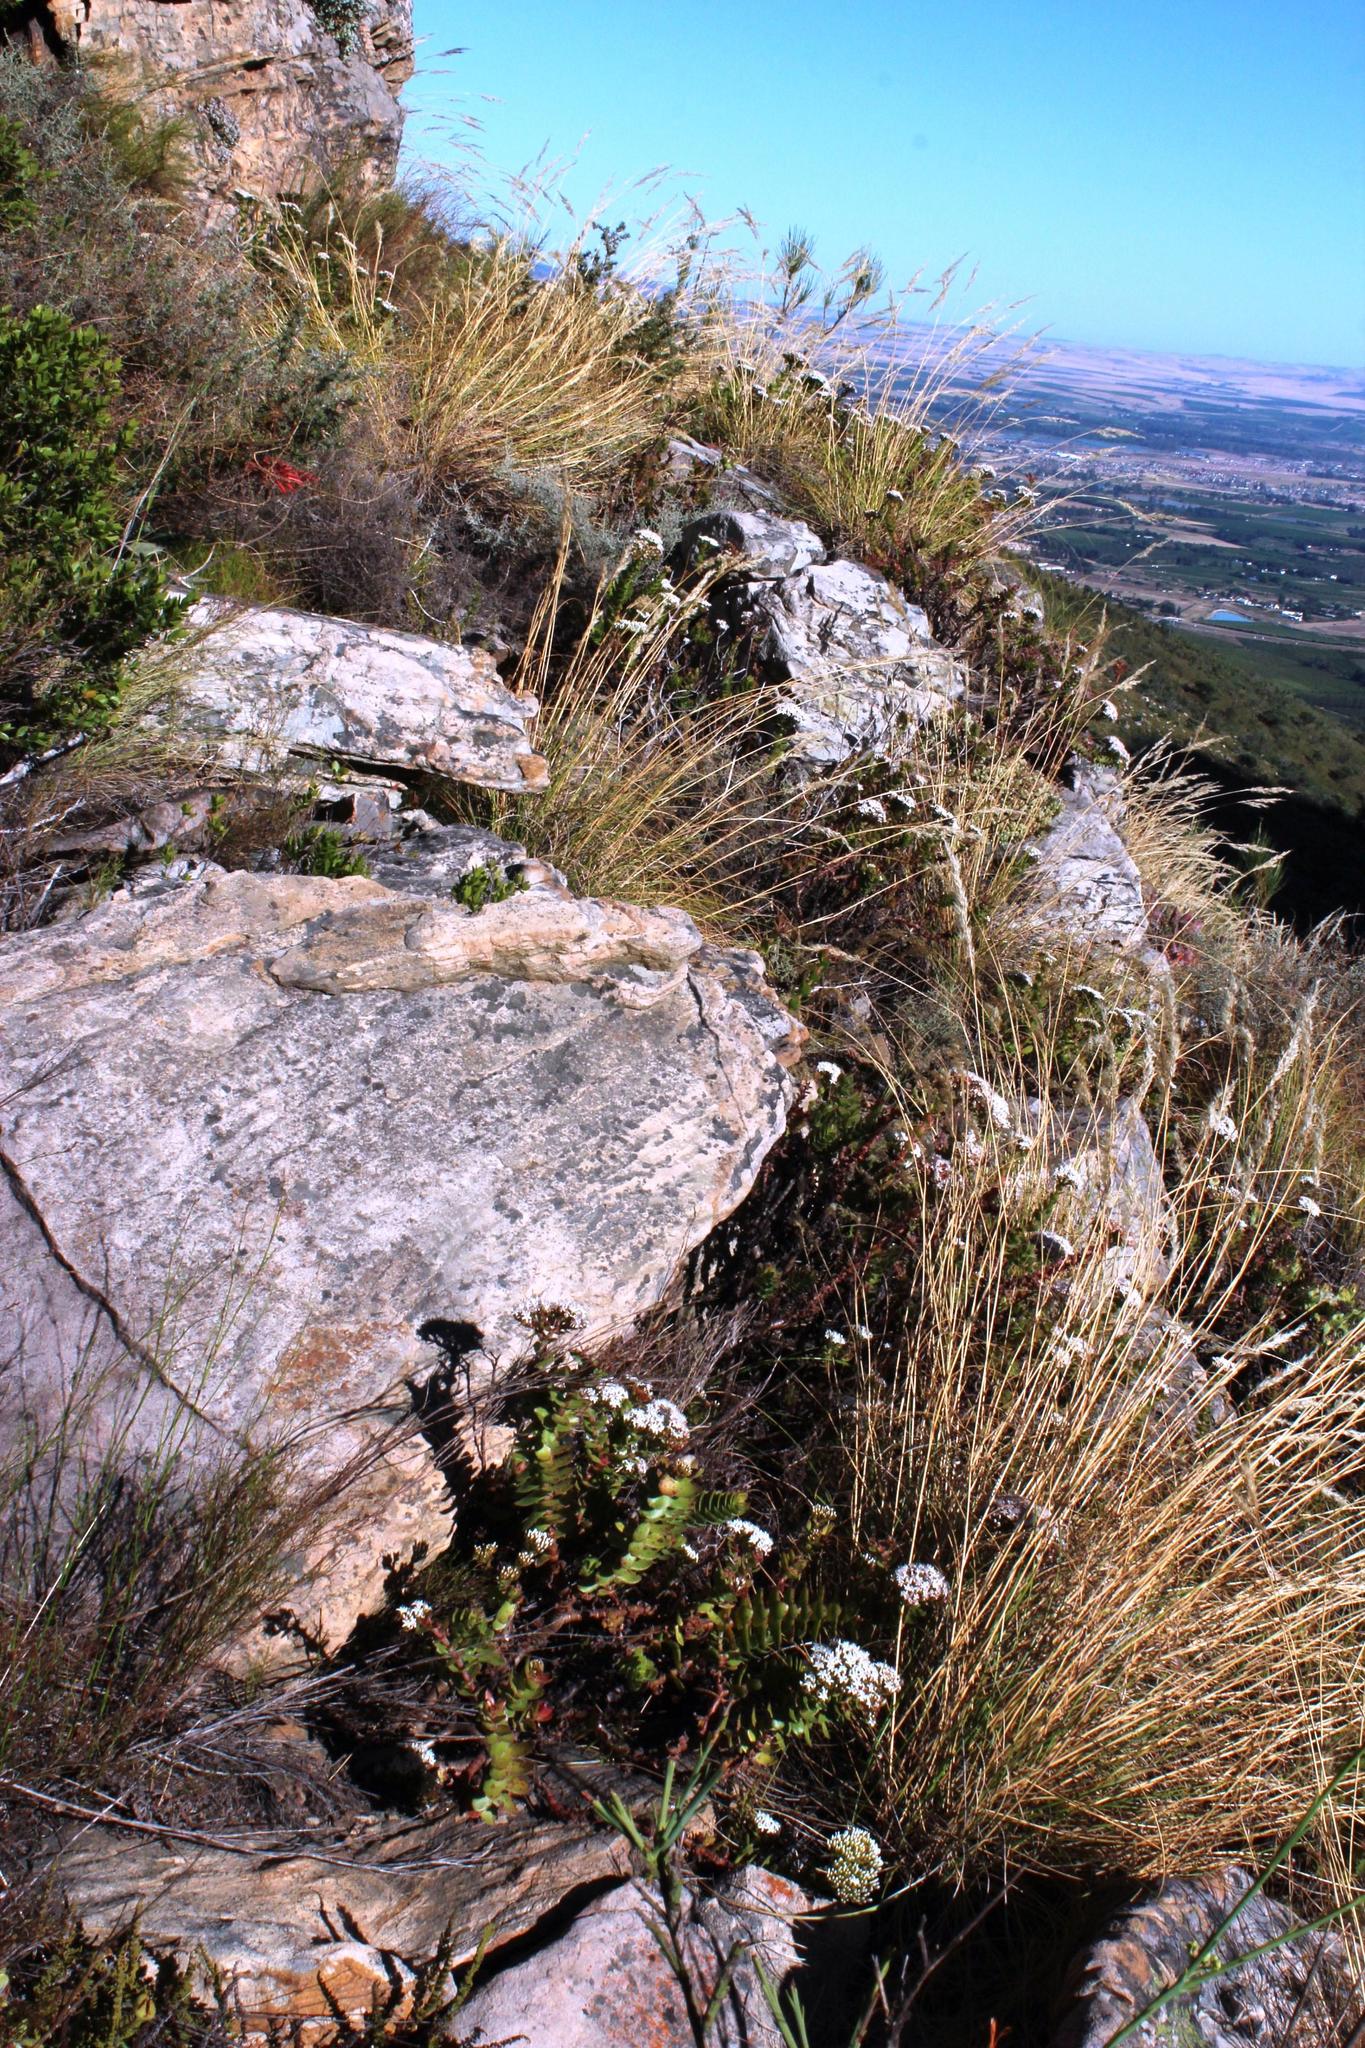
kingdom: Plantae
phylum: Tracheophyta
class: Magnoliopsida
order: Saxifragales
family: Crassulaceae
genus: Crassula
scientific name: Crassula undulata
